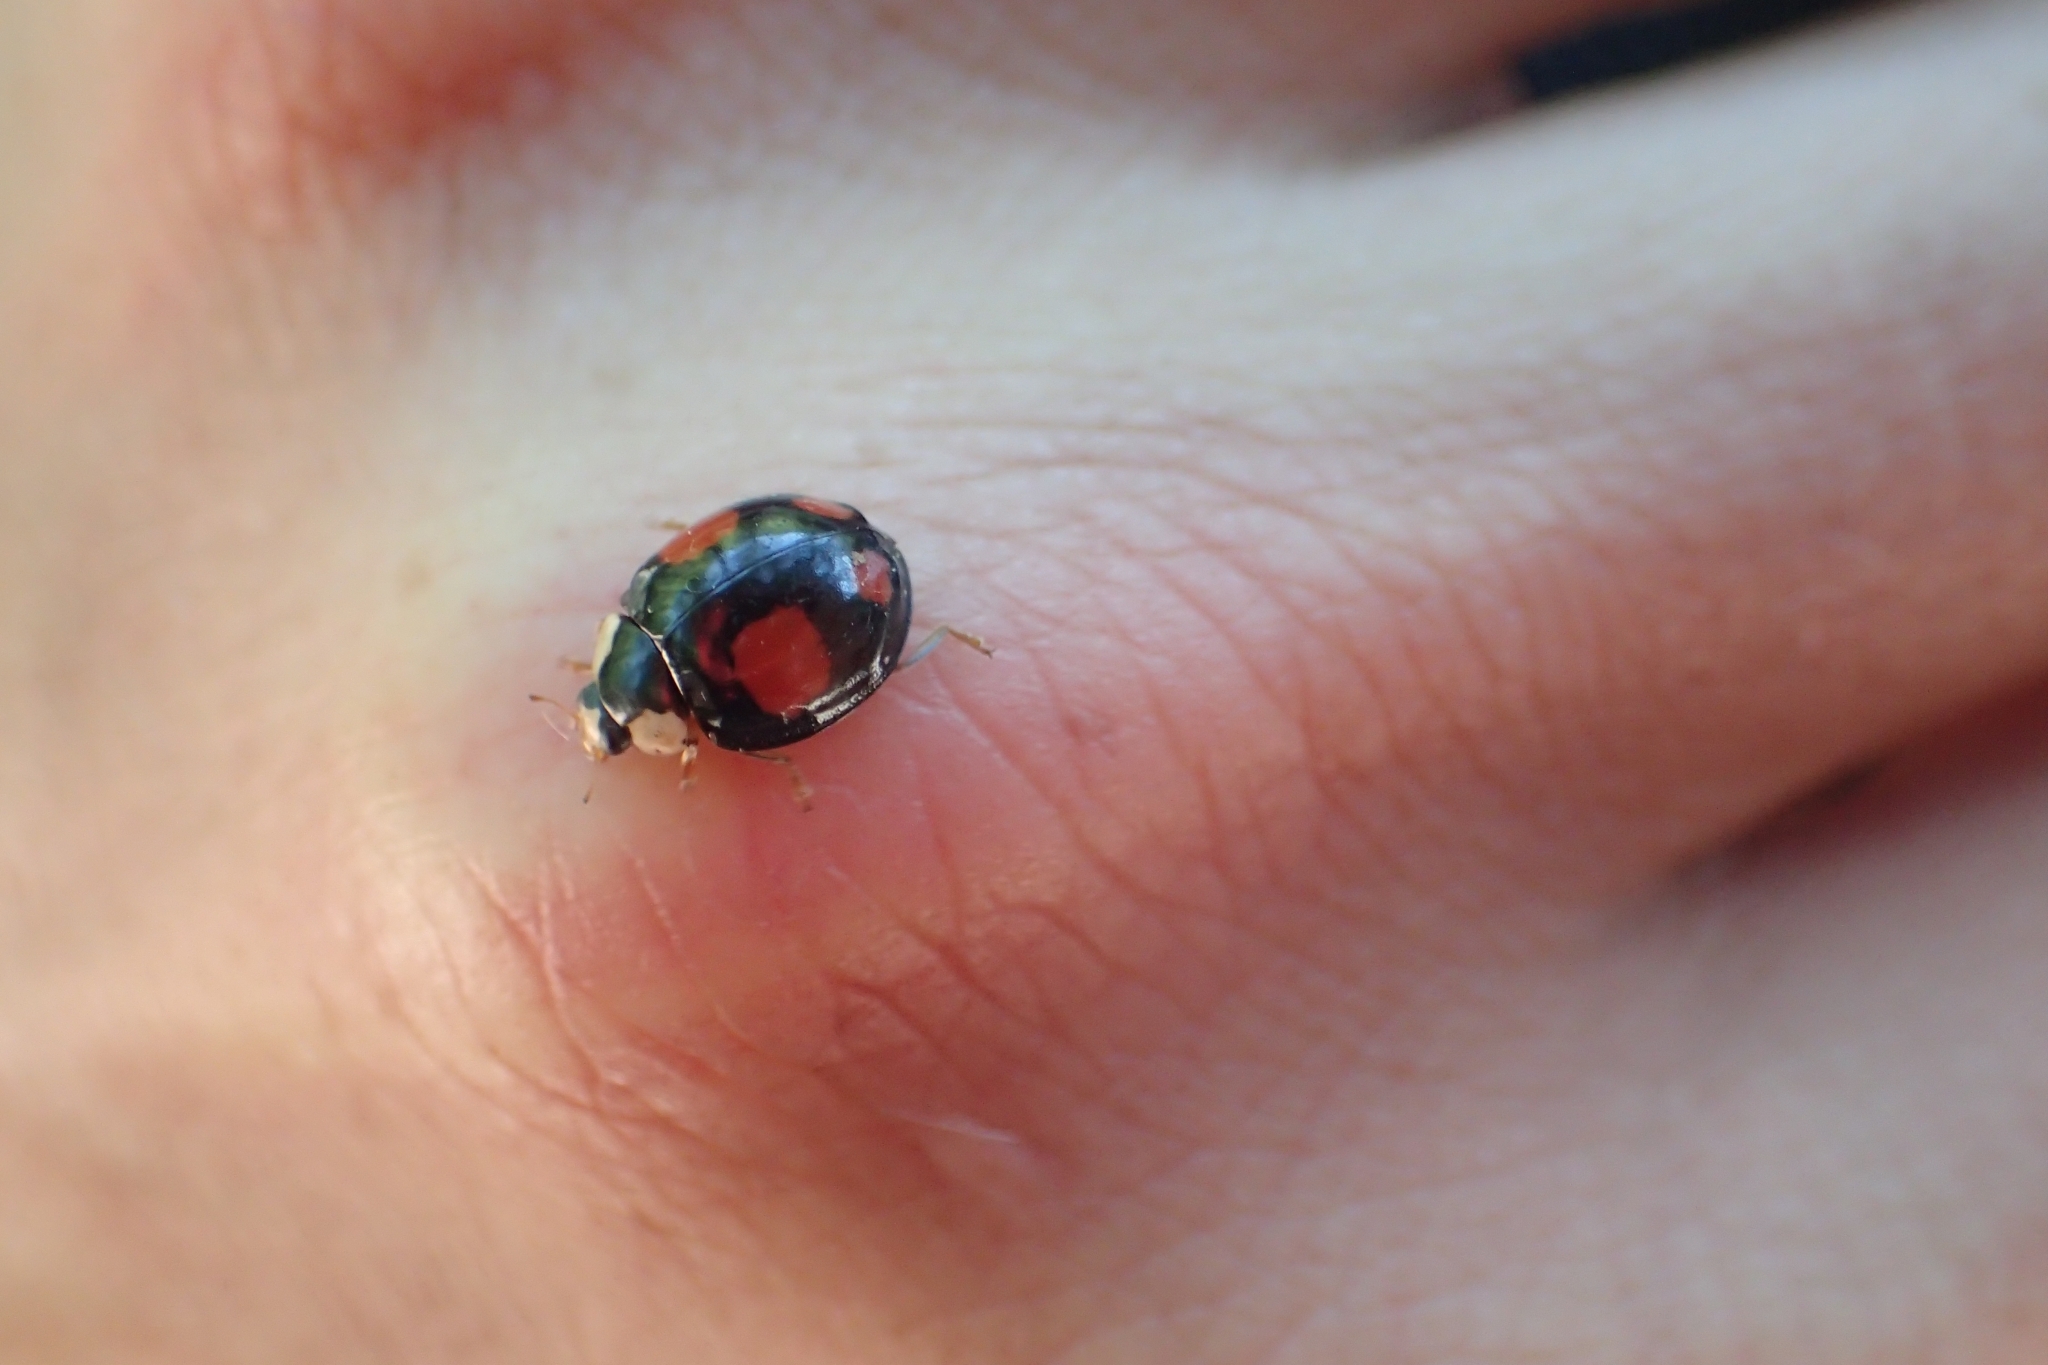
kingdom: Animalia
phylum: Arthropoda
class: Insecta
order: Coleoptera
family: Coccinellidae
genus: Harmonia
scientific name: Harmonia axyridis
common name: Harlequin ladybird
